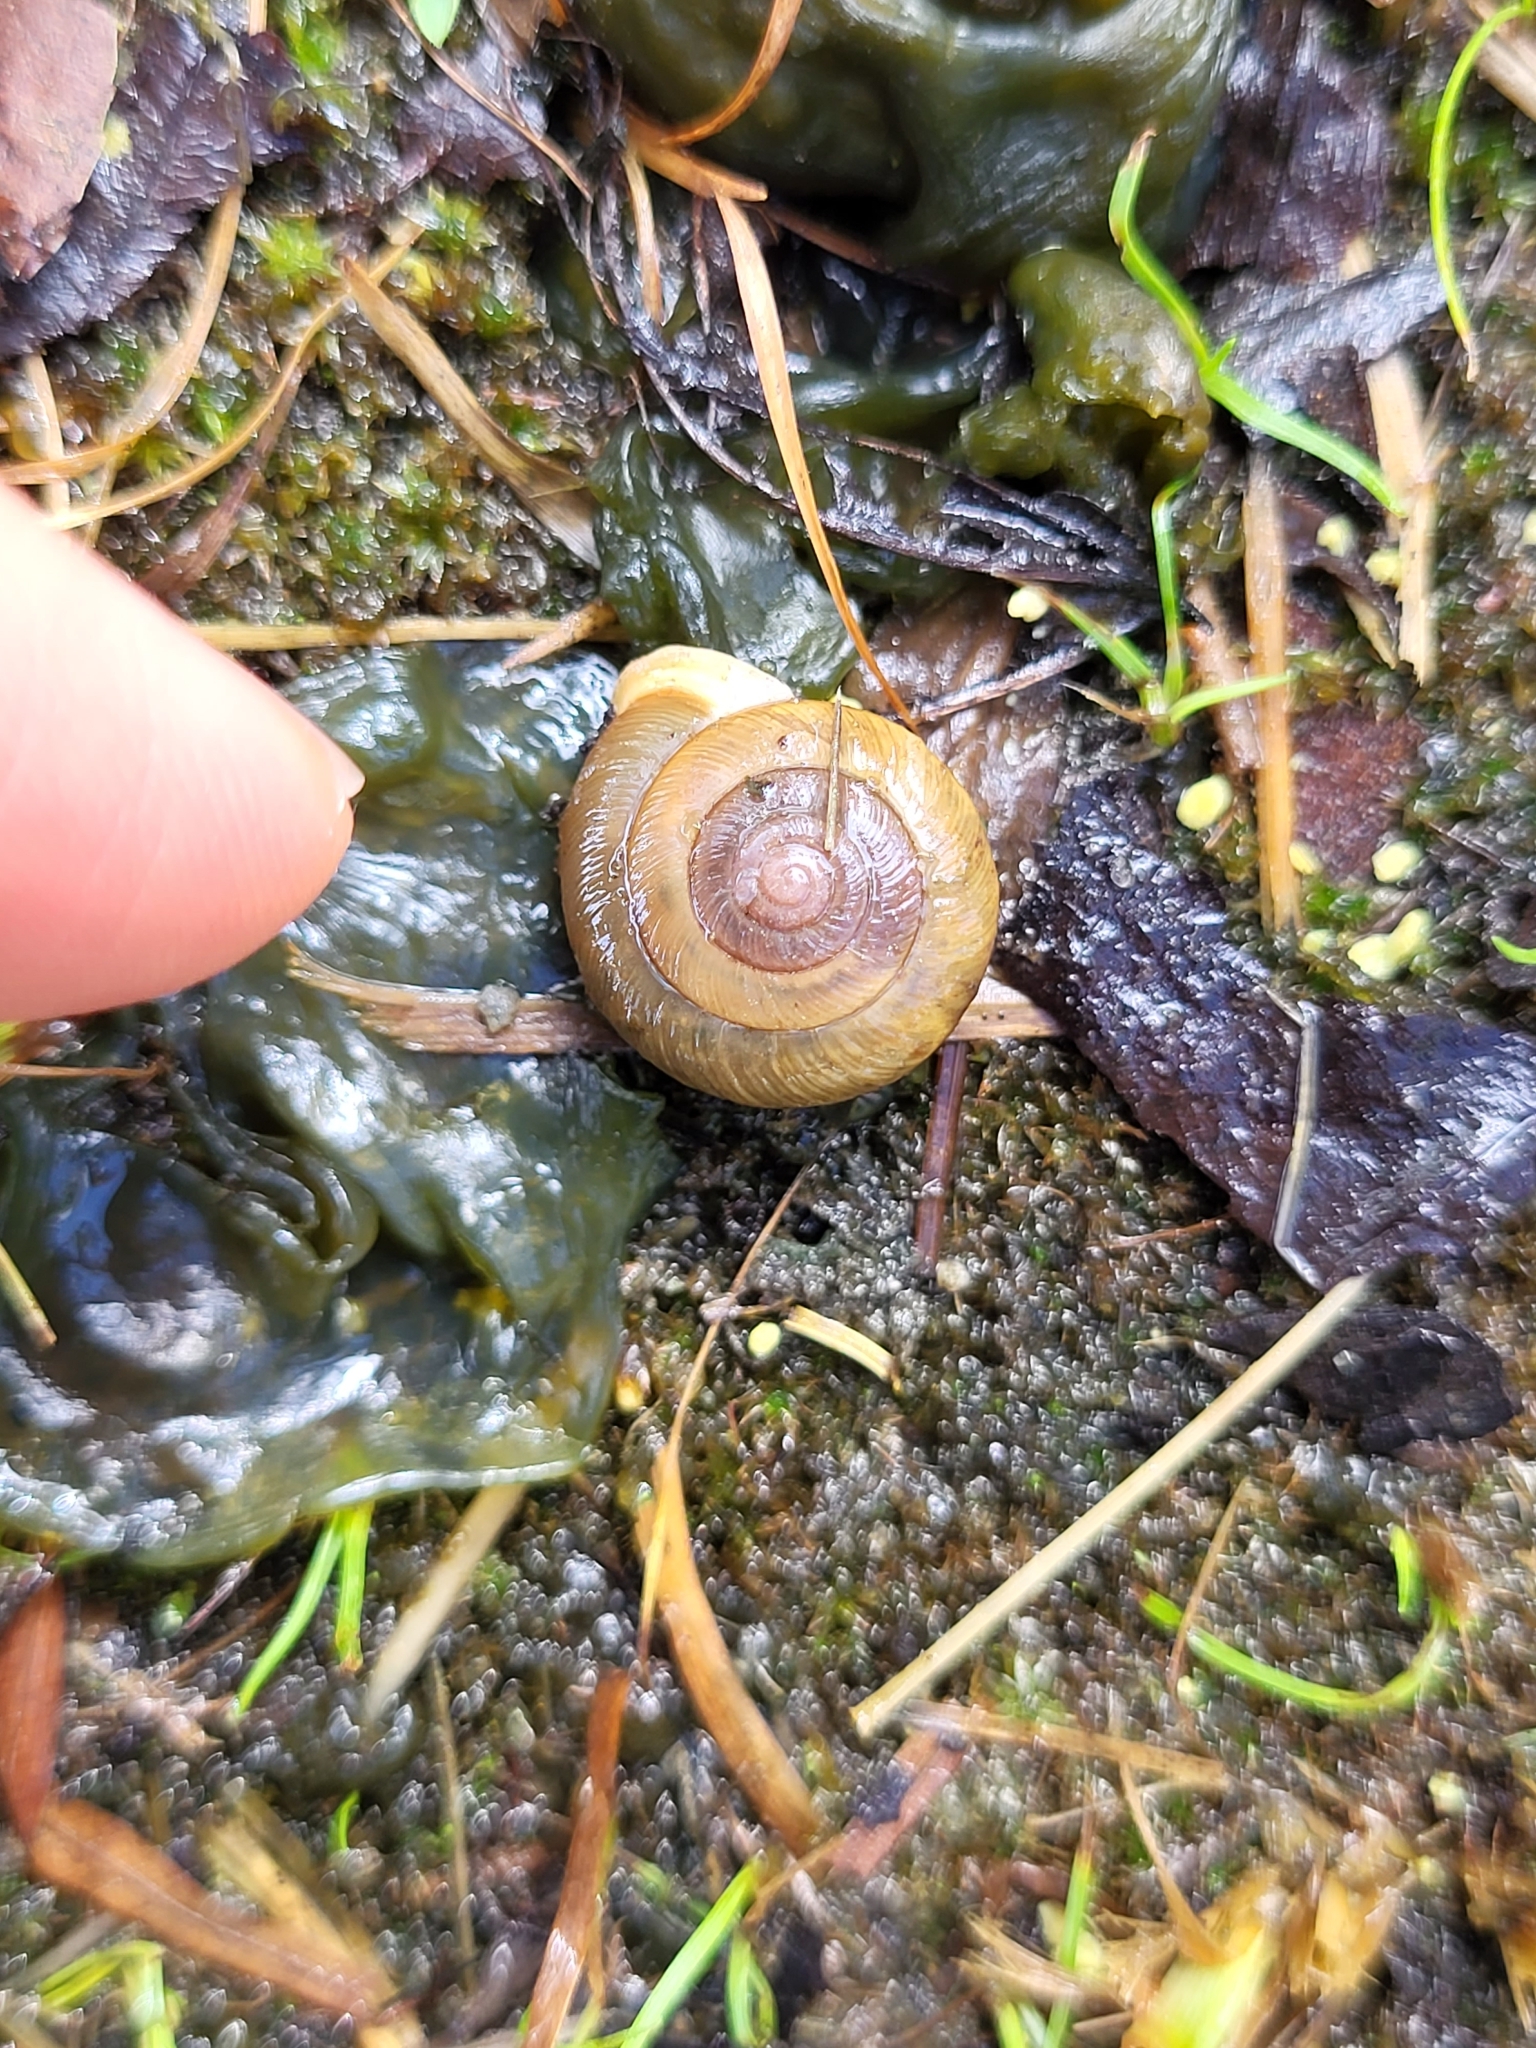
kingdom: Animalia
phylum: Mollusca
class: Gastropoda
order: Stylommatophora
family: Polygyridae
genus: Patera
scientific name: Patera appressa
